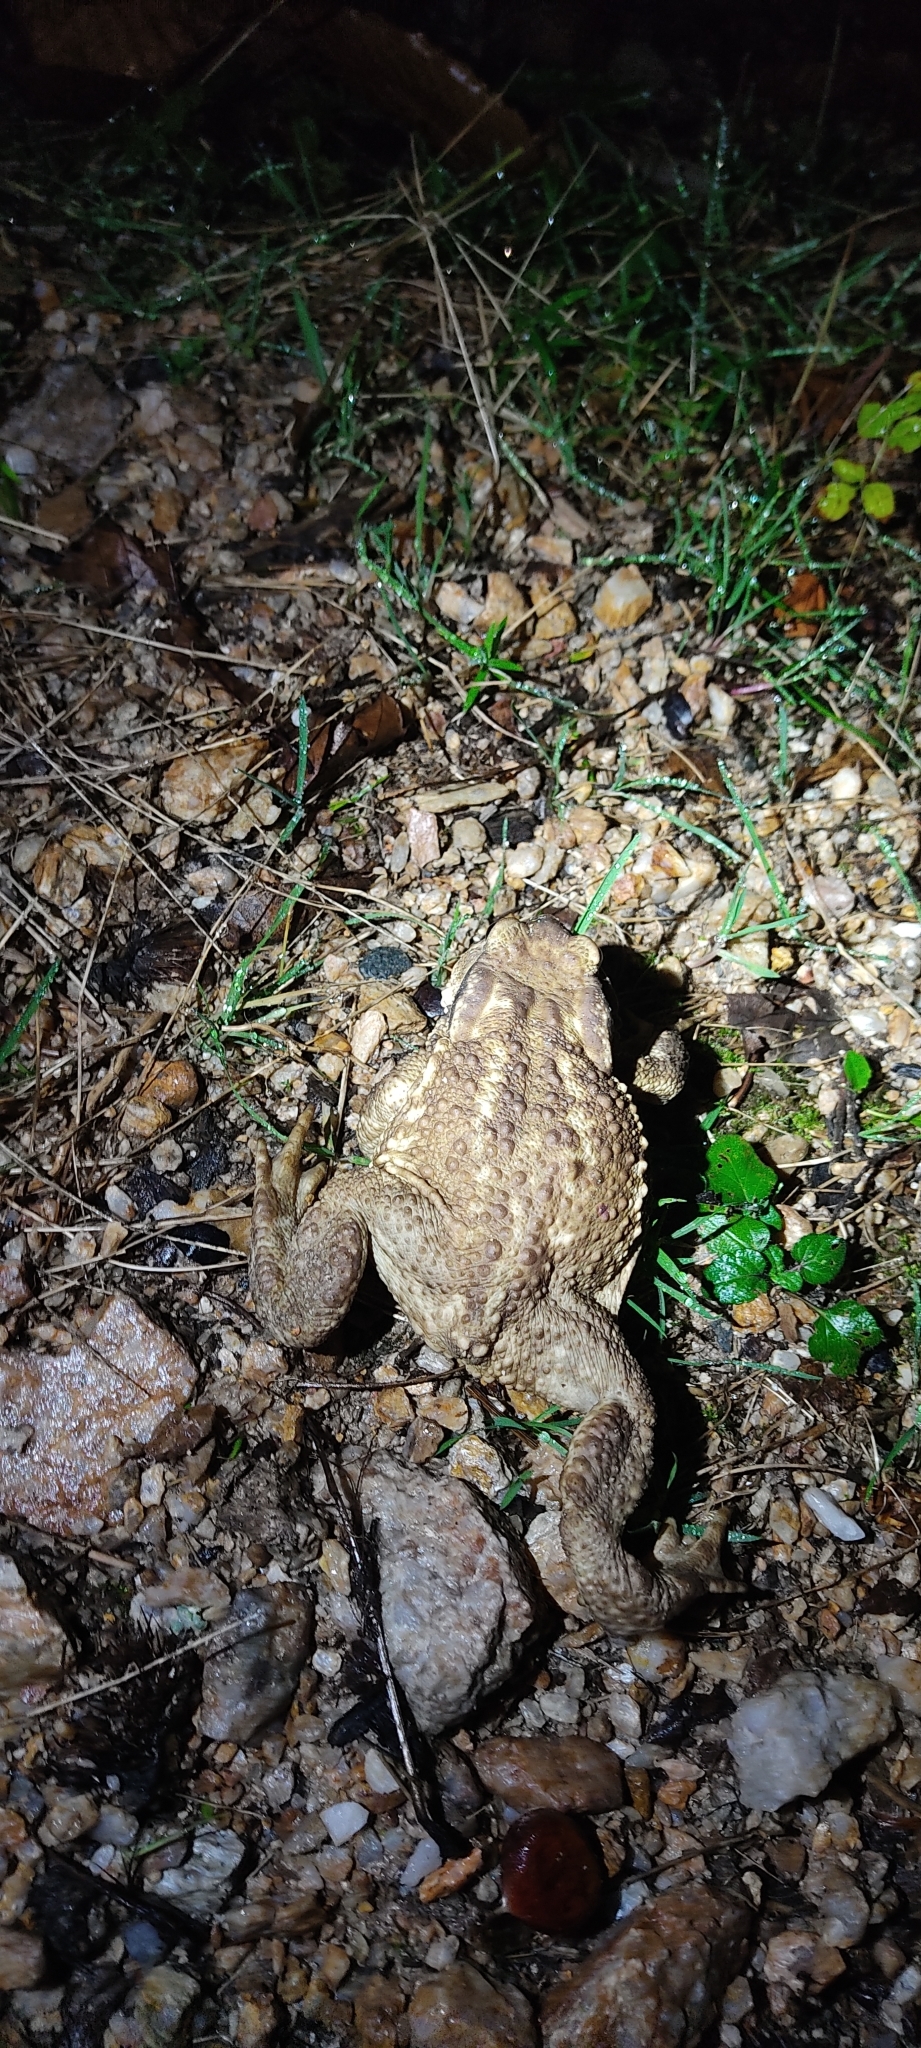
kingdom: Animalia
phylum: Chordata
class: Amphibia
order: Anura
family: Bufonidae
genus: Bufo
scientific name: Bufo spinosus
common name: Western common toad
